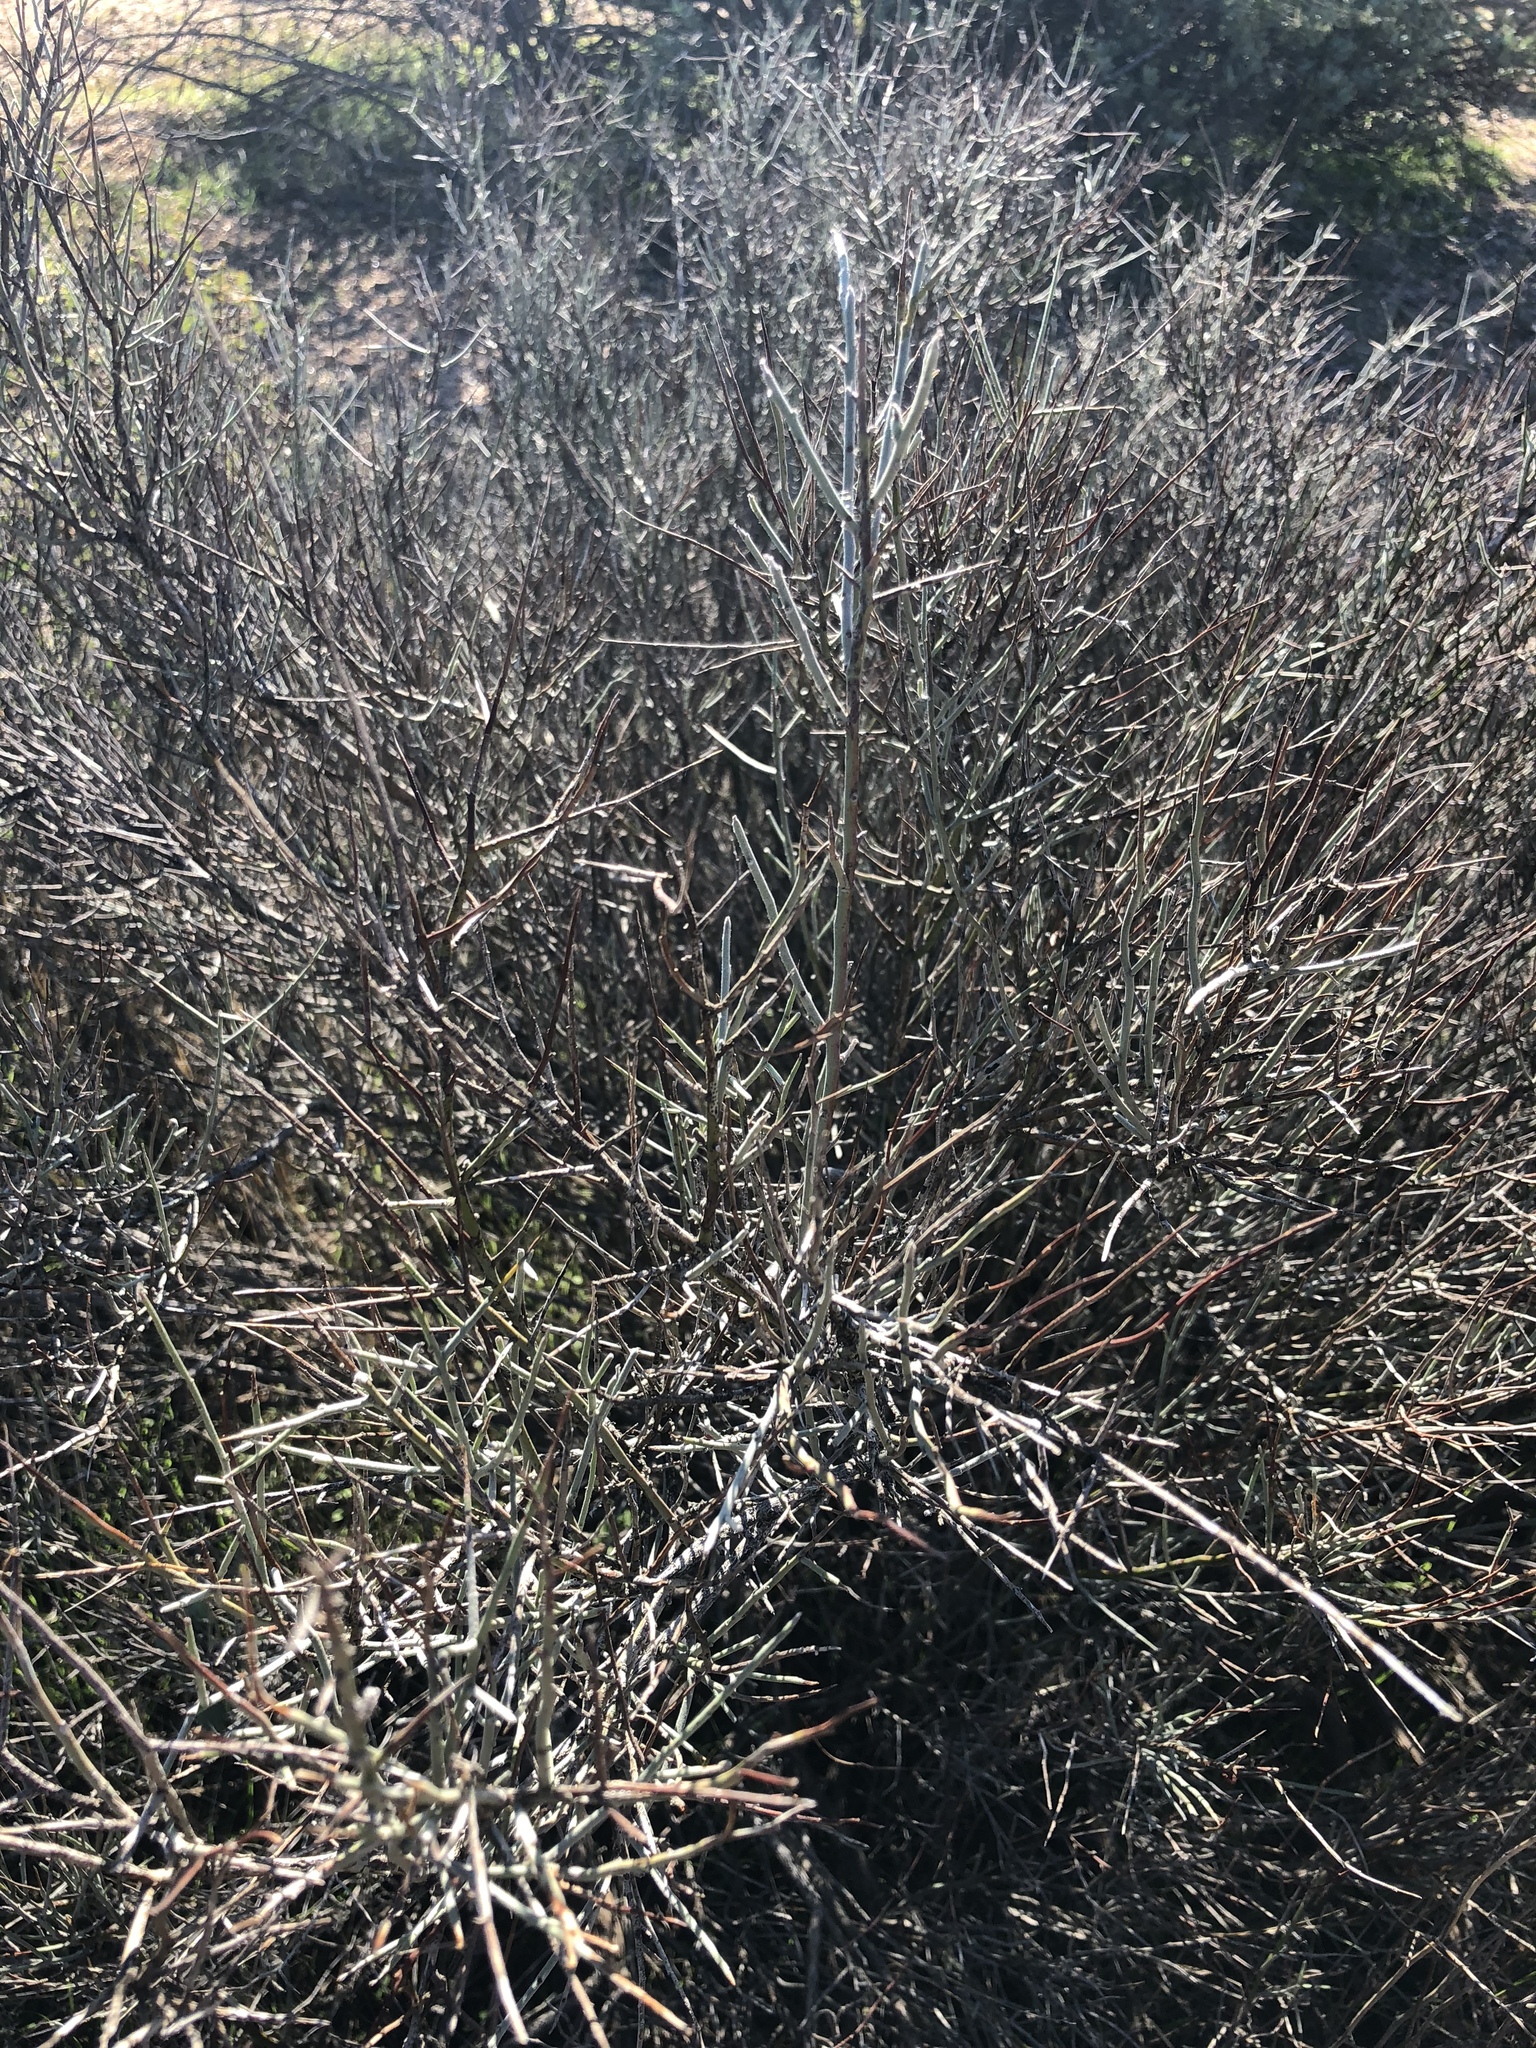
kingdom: Plantae
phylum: Tracheophyta
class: Magnoliopsida
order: Zygophyllales
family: Krameriaceae
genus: Krameria
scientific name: Krameria bicolor
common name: White ratany
